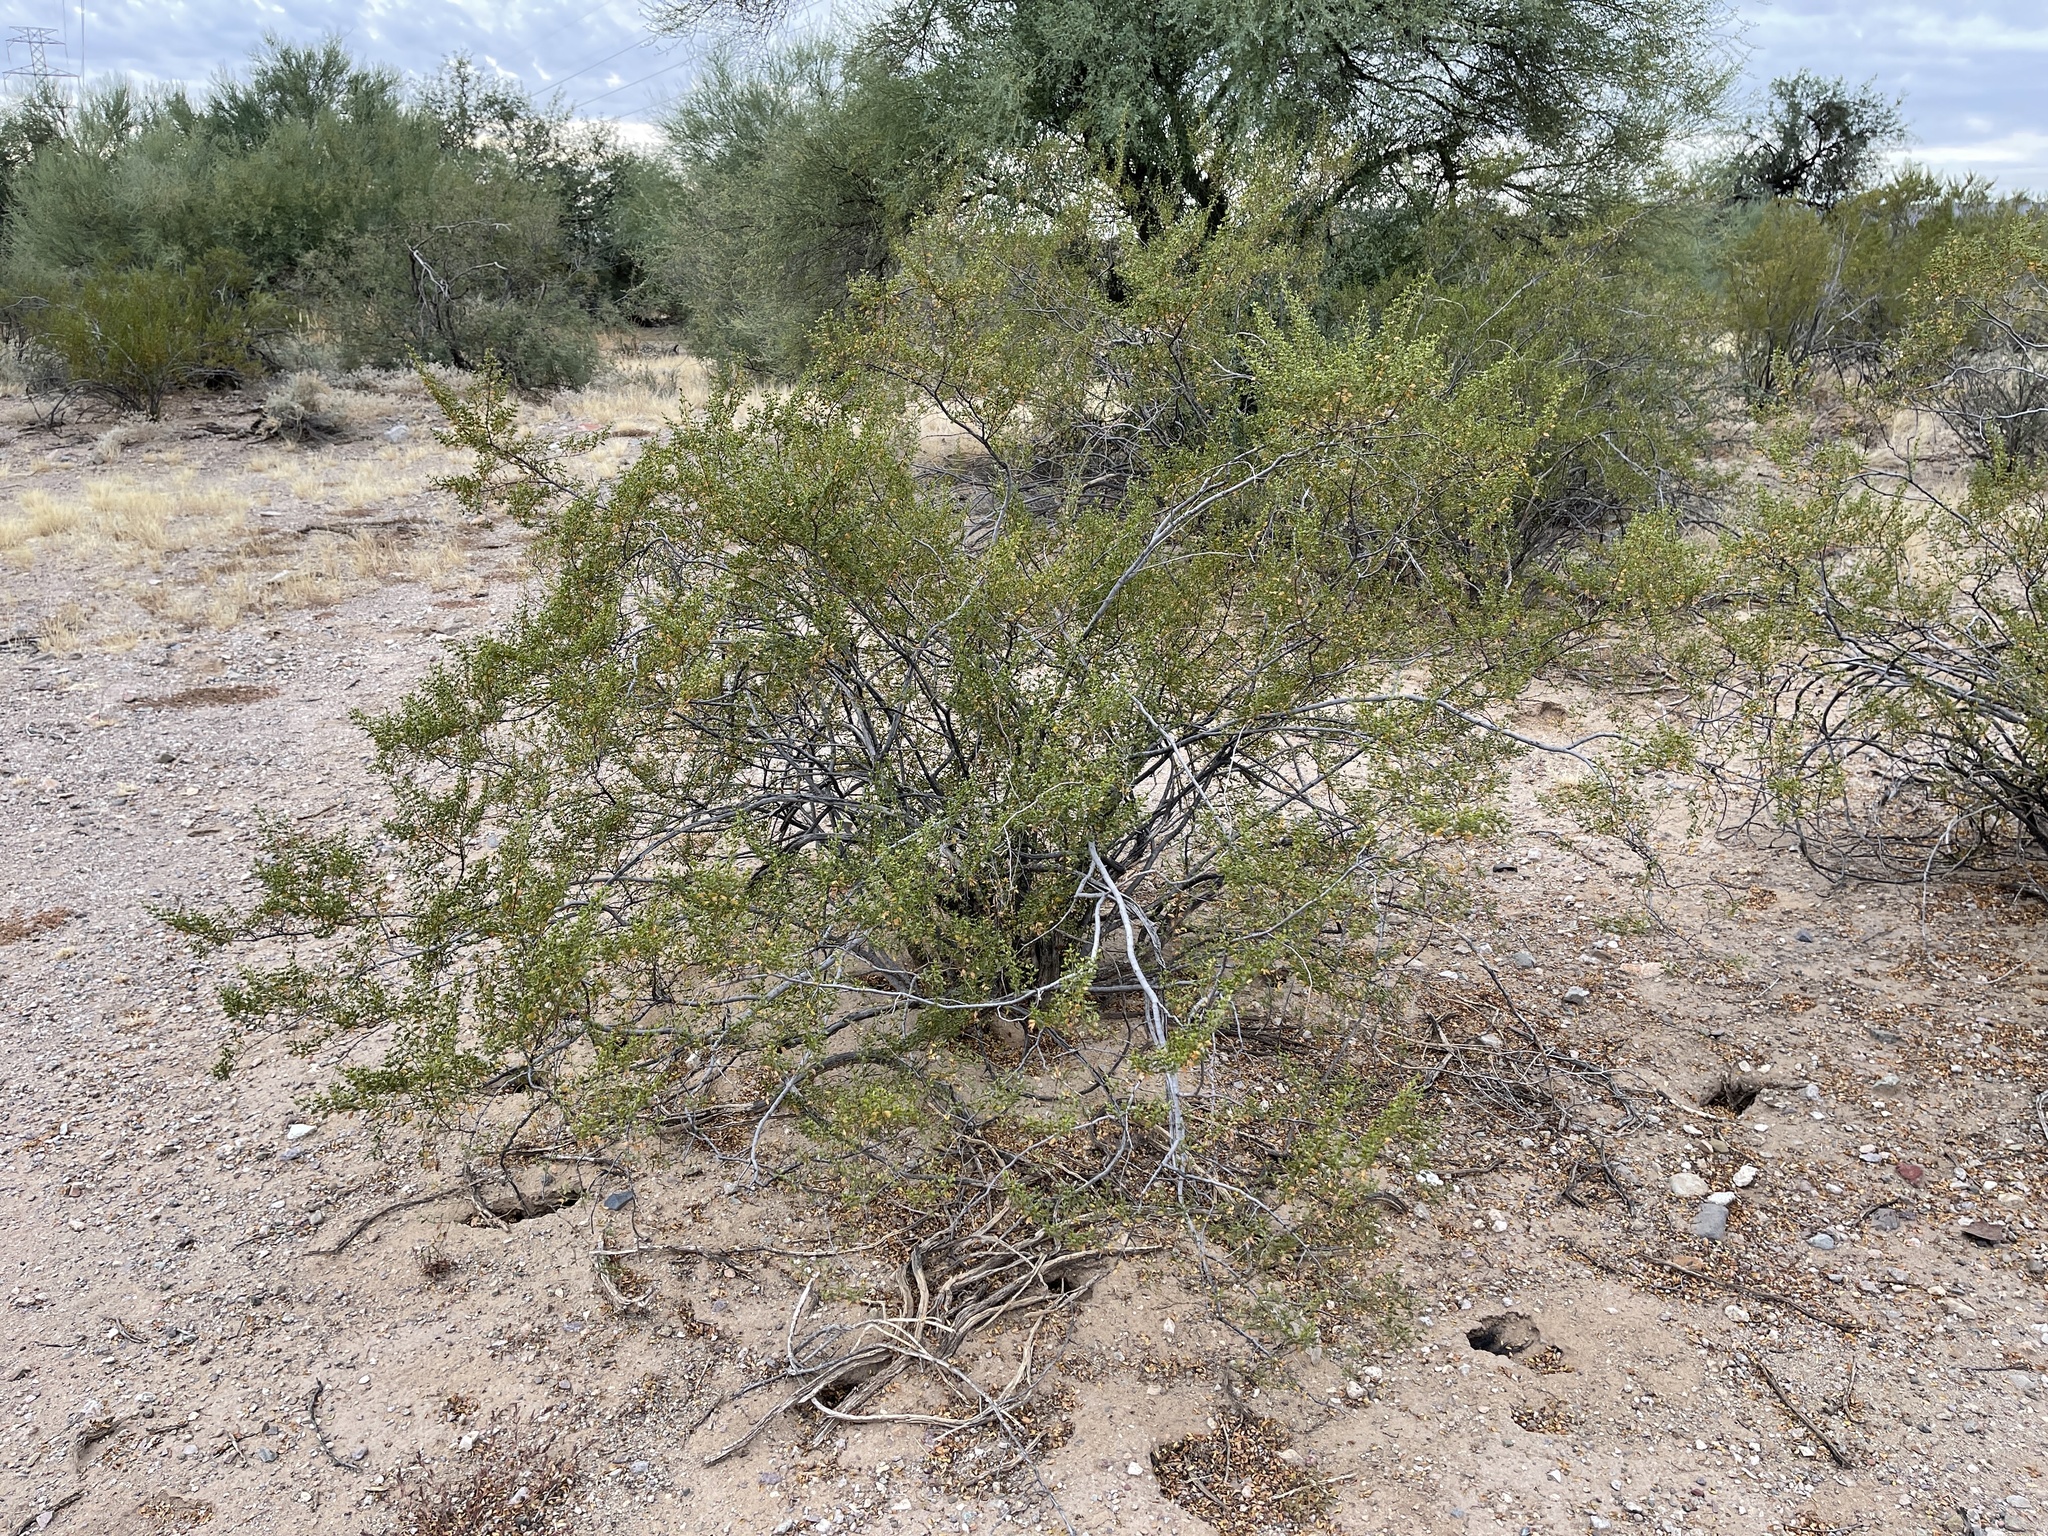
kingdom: Plantae
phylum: Tracheophyta
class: Magnoliopsida
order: Zygophyllales
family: Zygophyllaceae
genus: Larrea
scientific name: Larrea tridentata
